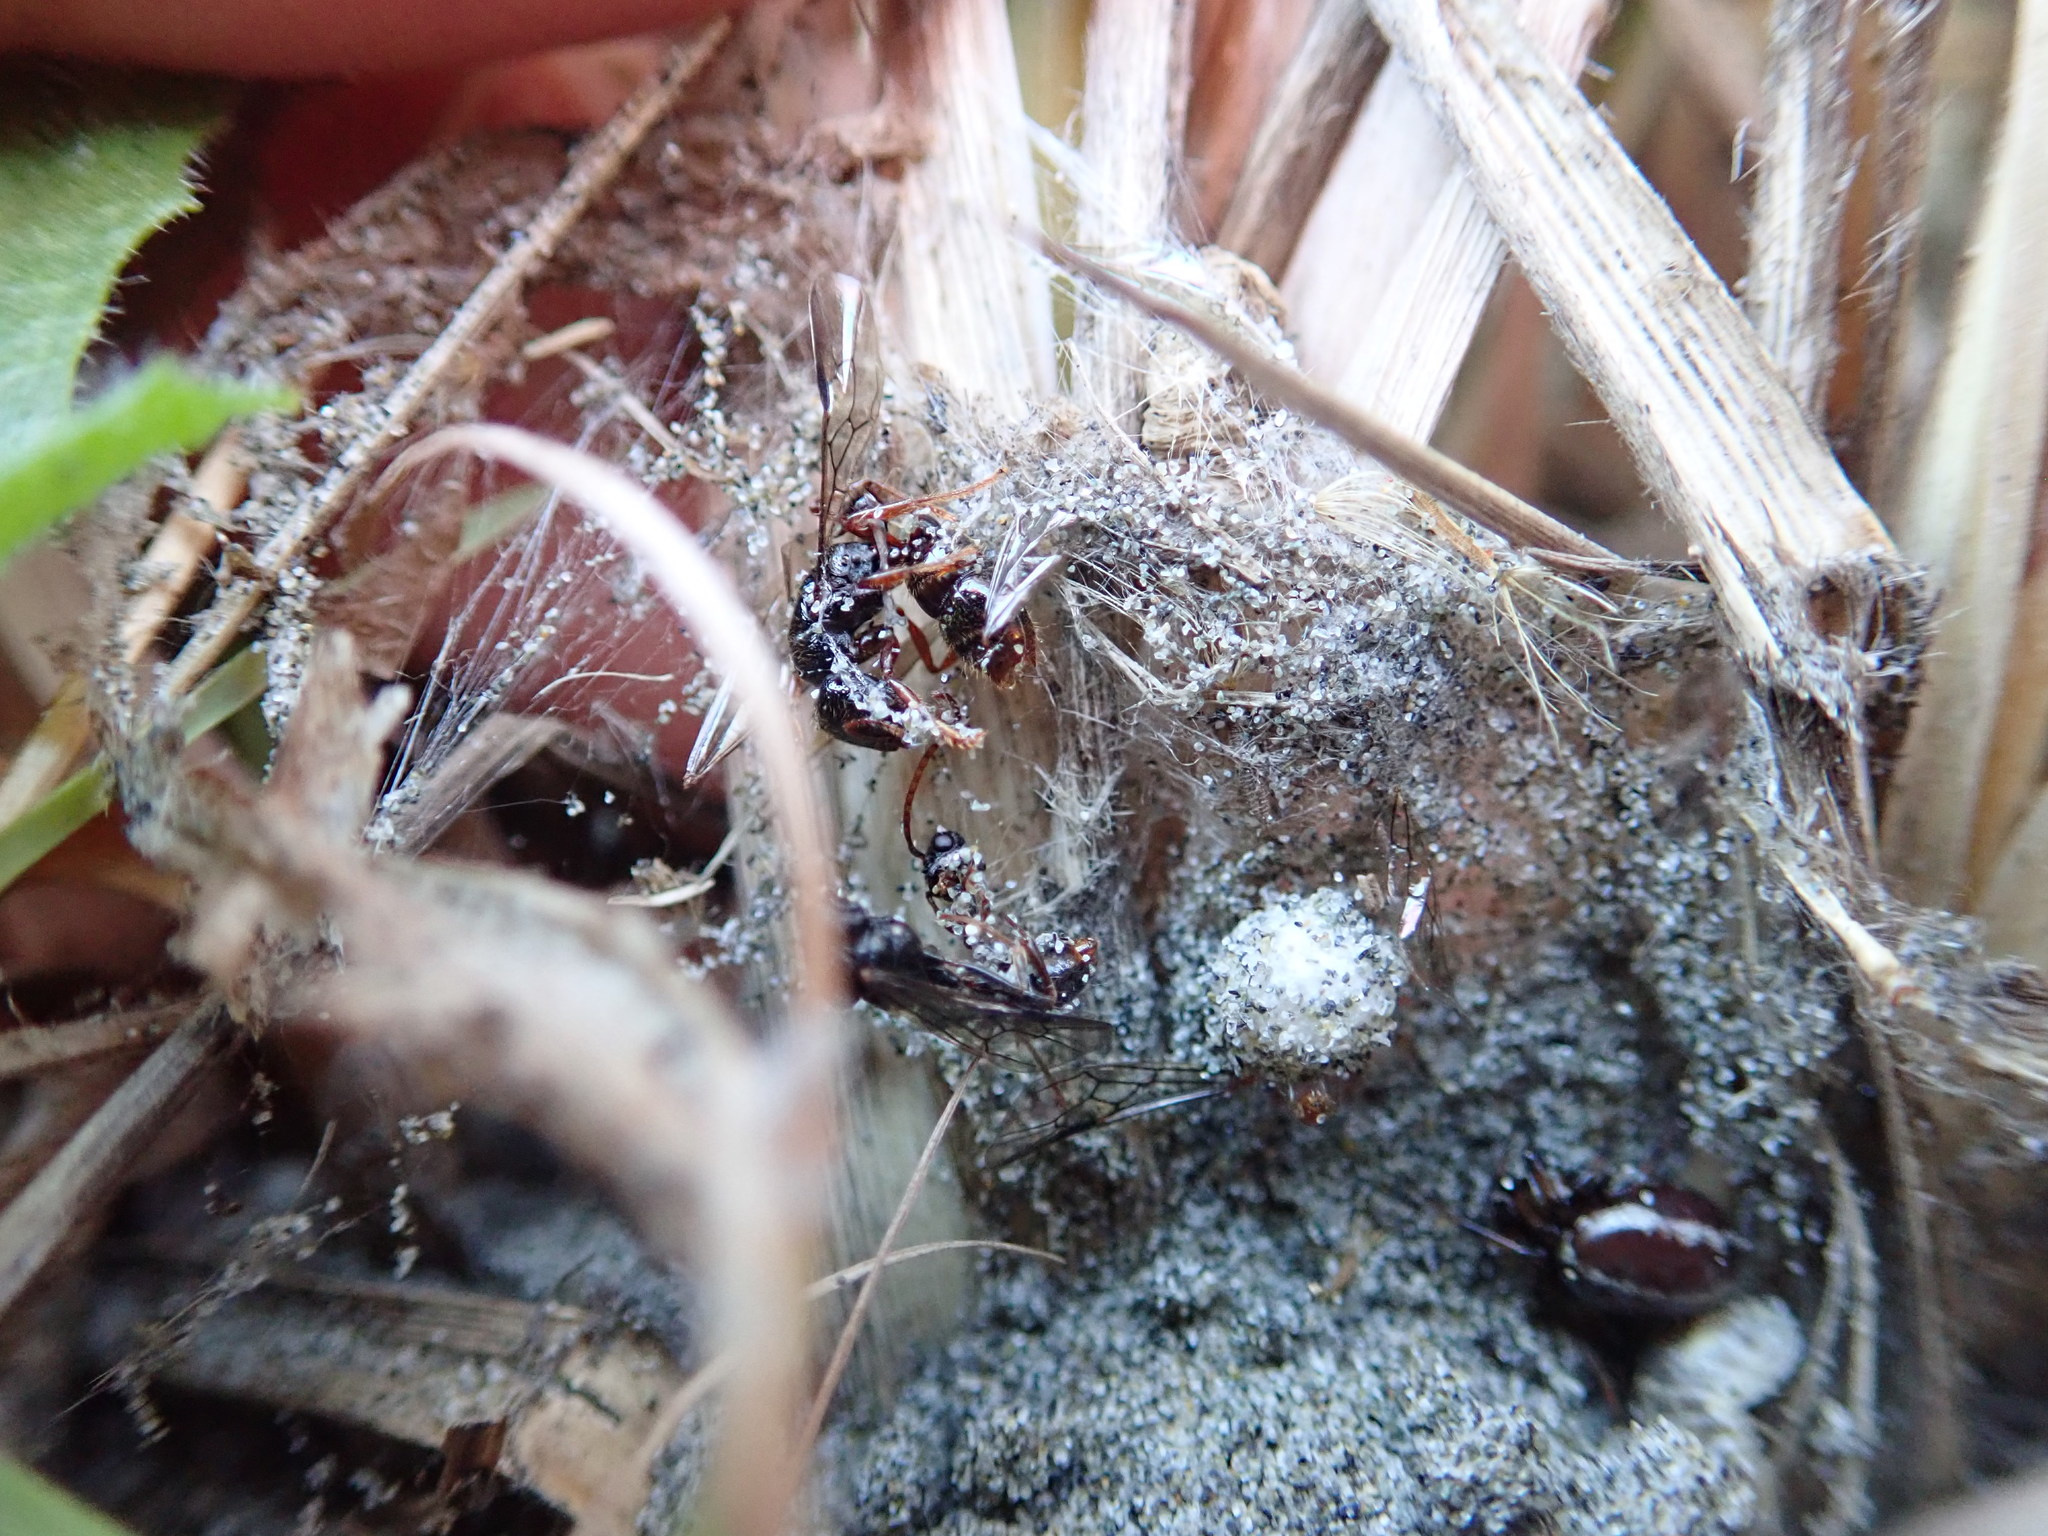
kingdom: Animalia
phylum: Arthropoda
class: Arachnida
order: Araneae
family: Theridiidae
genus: Steatoda
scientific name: Steatoda lepida
